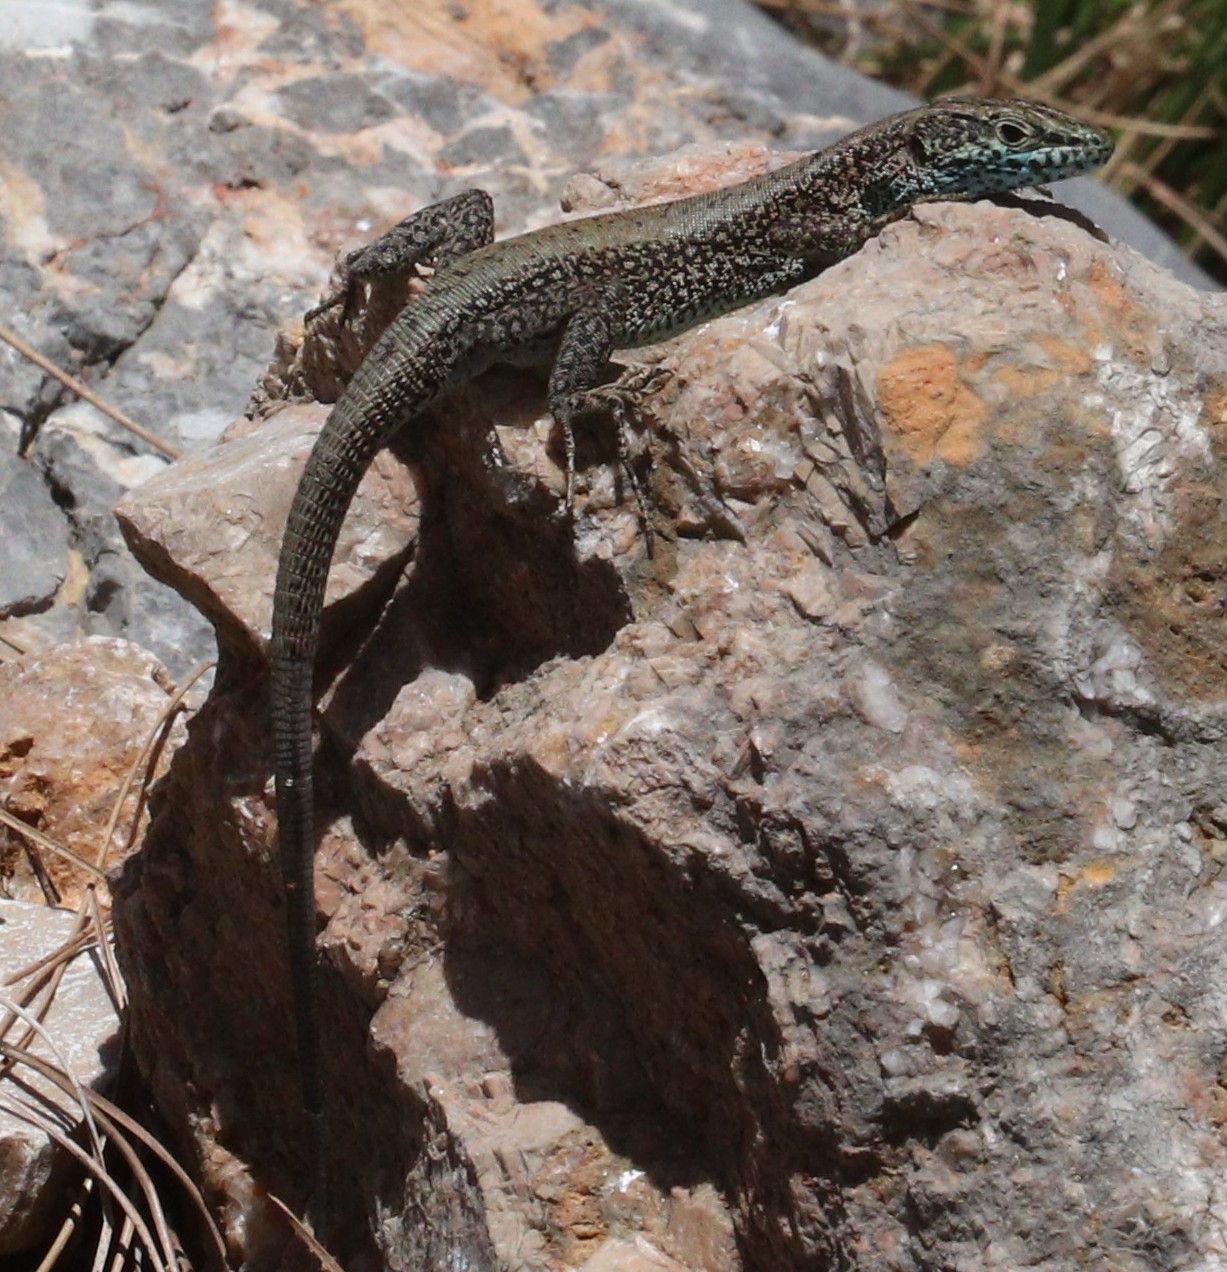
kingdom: Animalia
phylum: Chordata
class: Squamata
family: Lacertidae
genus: Anatololacerta
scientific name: Anatololacerta danfordi
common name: Danford's lizard
